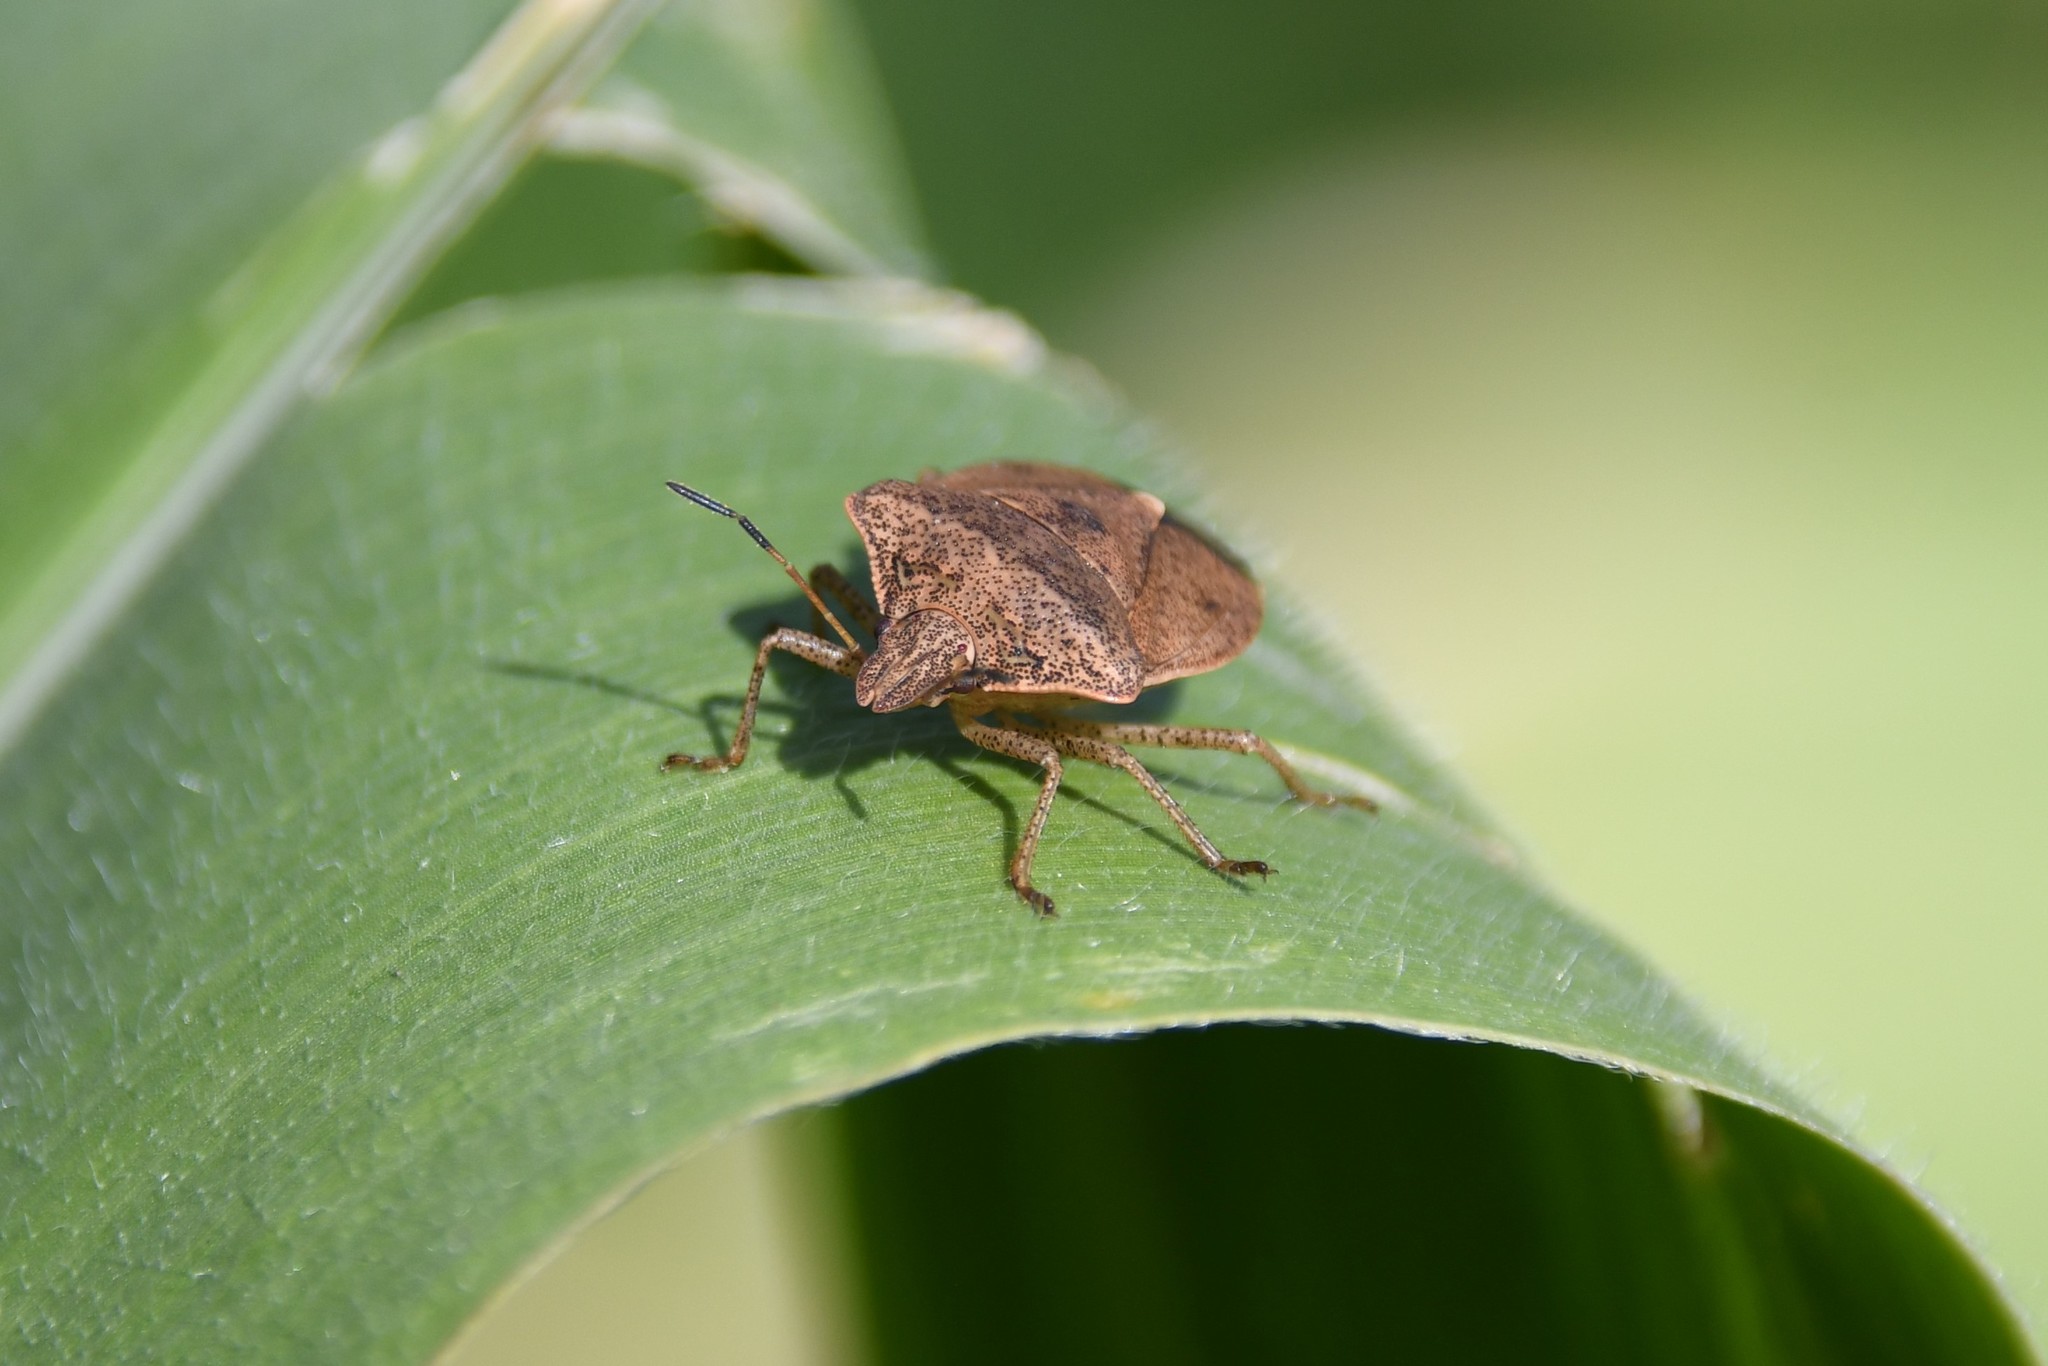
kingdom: Animalia
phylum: Arthropoda
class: Insecta
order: Hemiptera
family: Pentatomidae
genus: Euschistus
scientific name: Euschistus servus
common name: Brown stink bug
